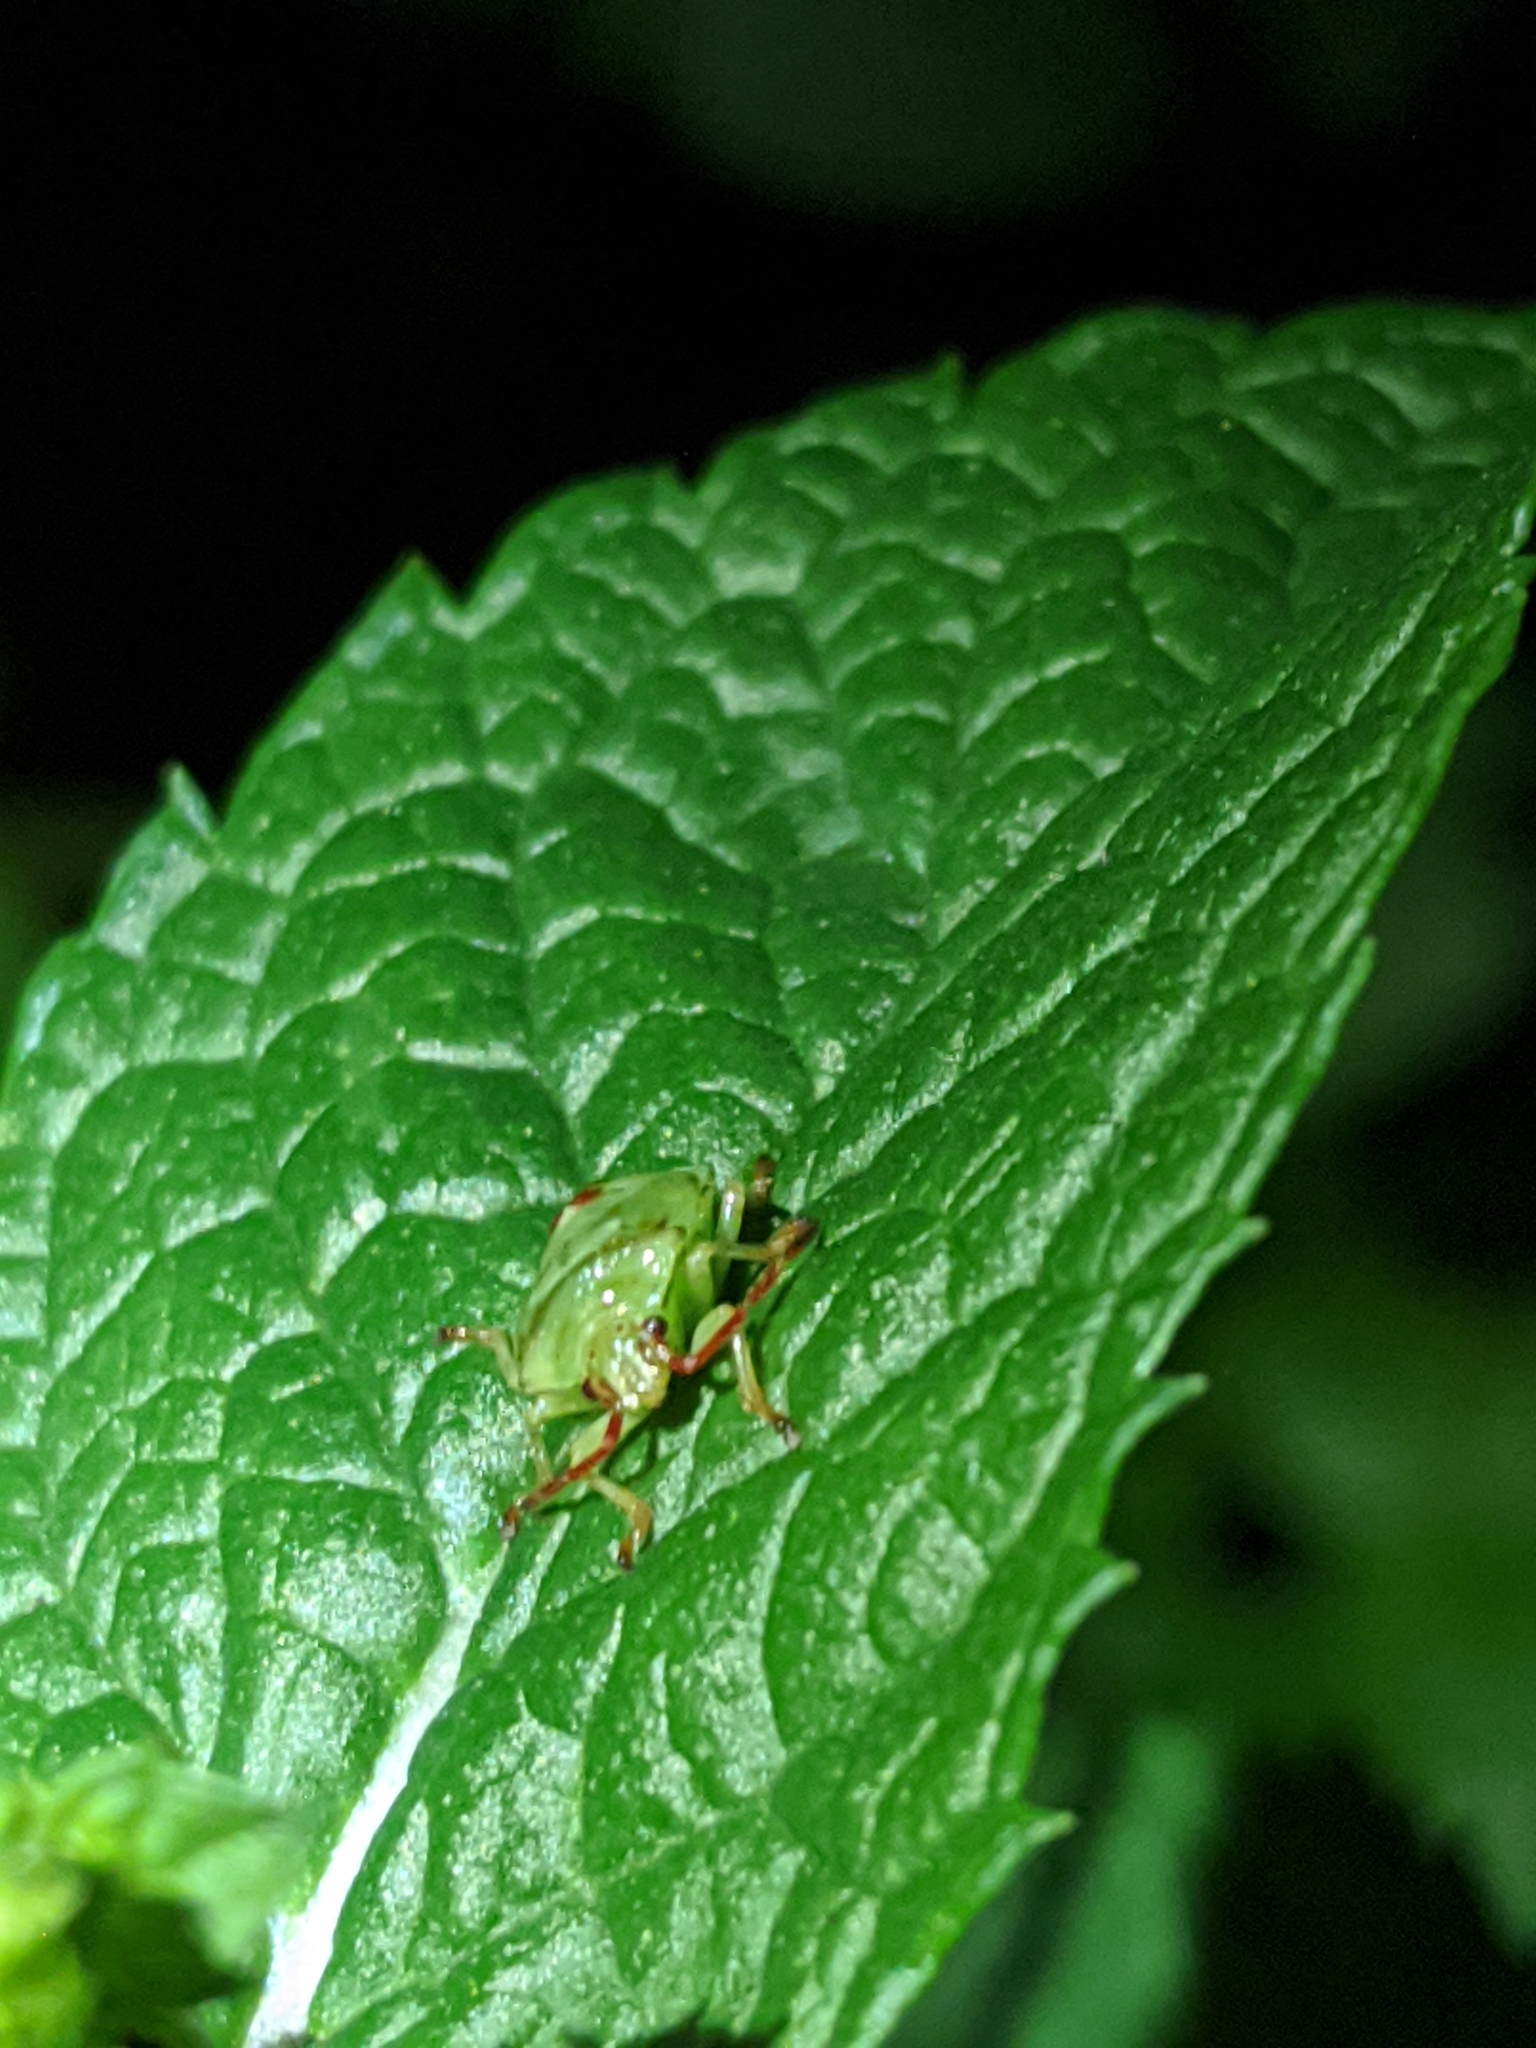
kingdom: Animalia
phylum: Arthropoda
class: Insecta
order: Hemiptera
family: Acanthosomatidae
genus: Elasmostethus
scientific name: Elasmostethus cruciatus
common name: Red-cross shield bug
